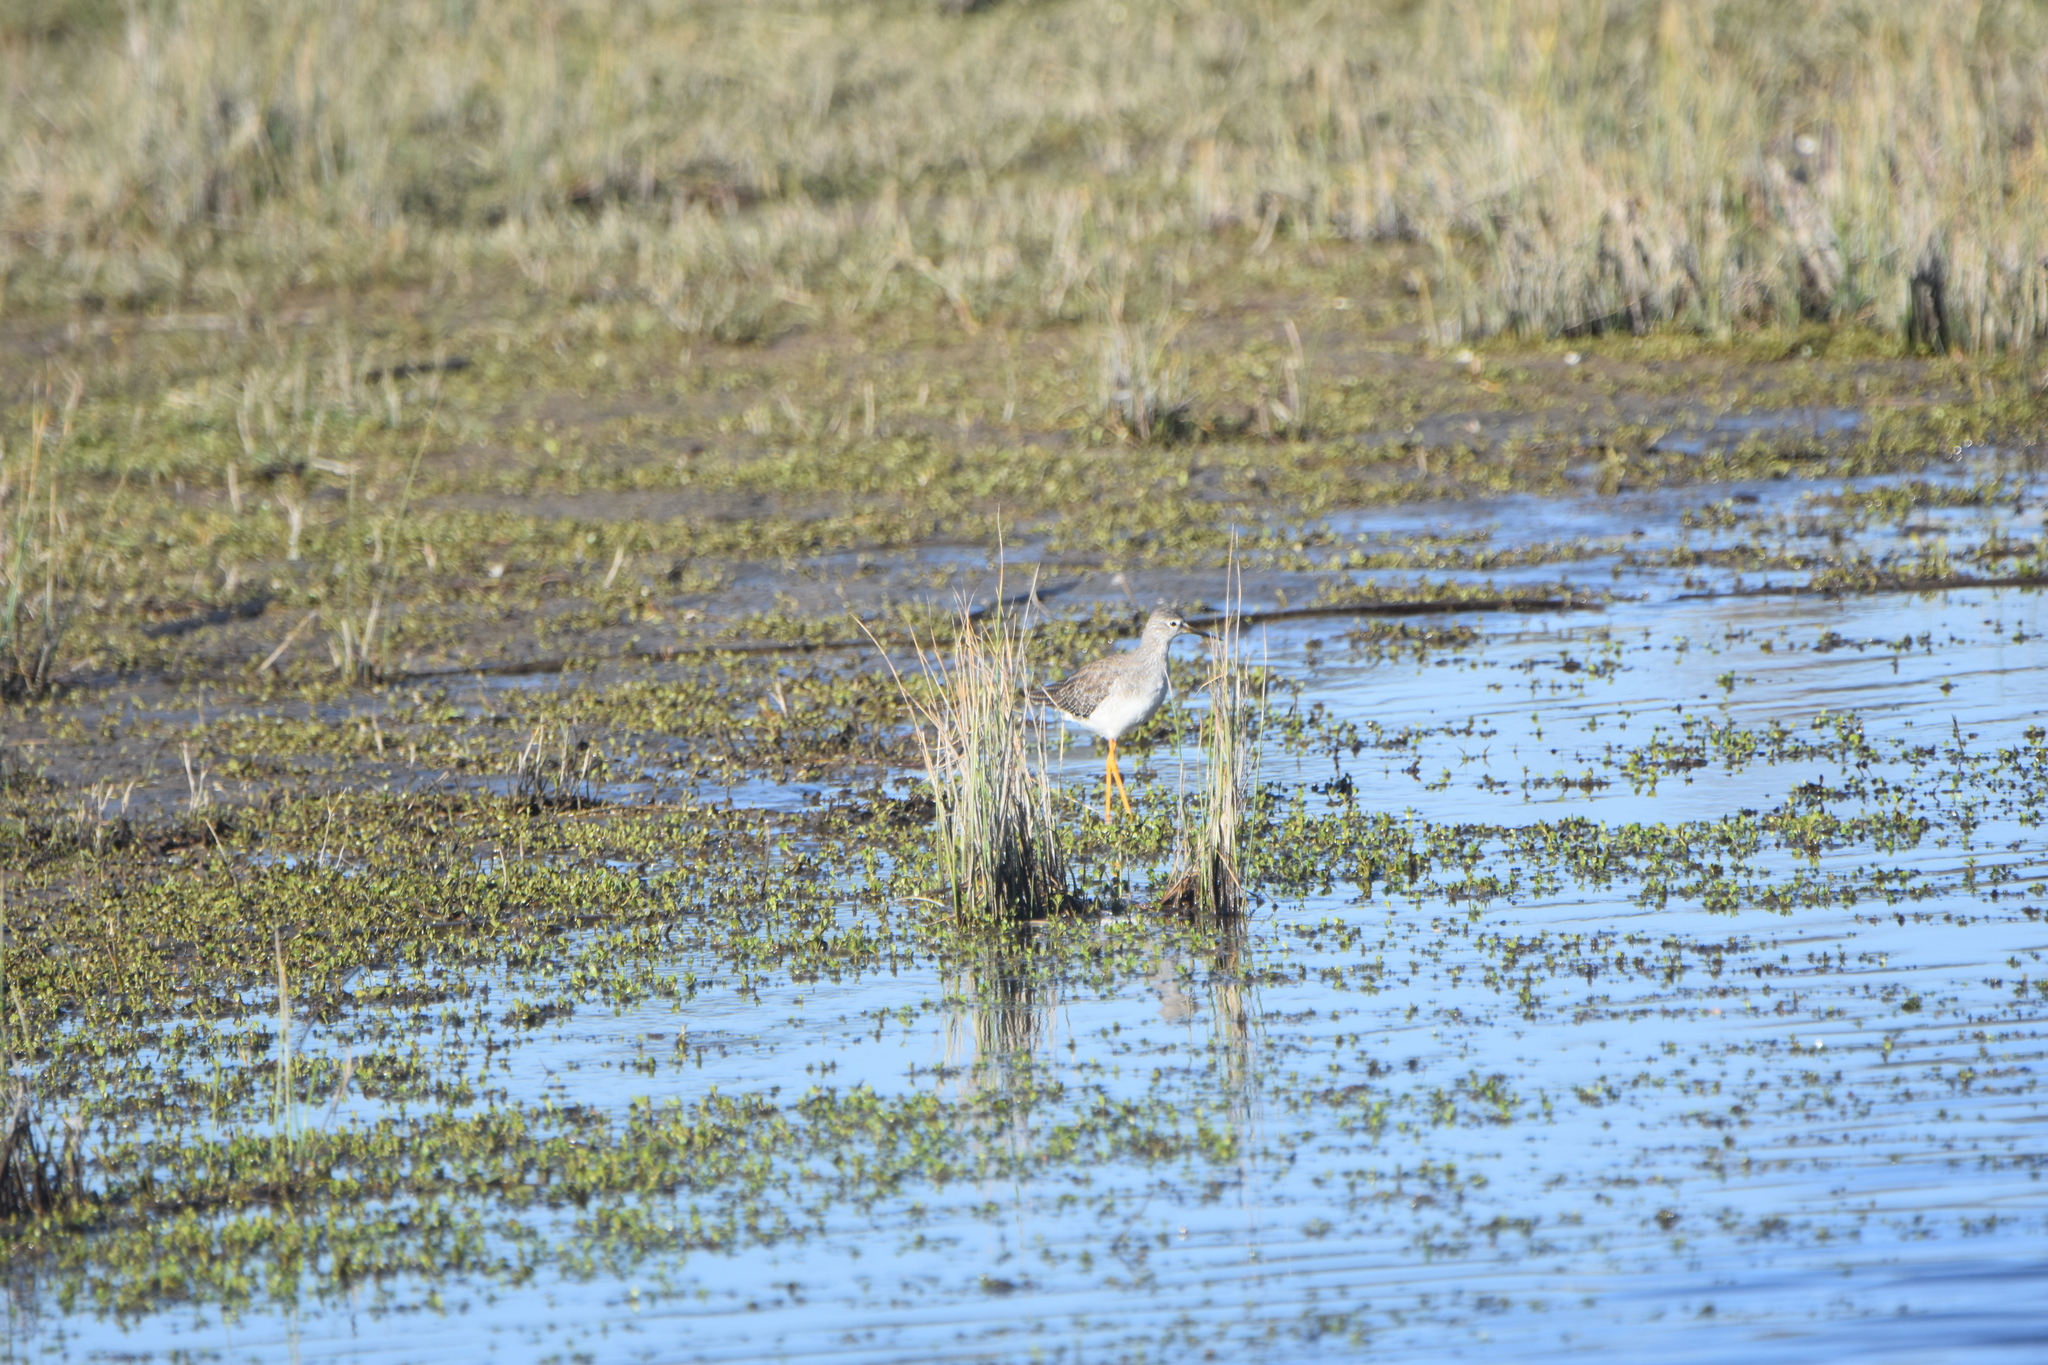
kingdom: Animalia
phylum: Chordata
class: Aves
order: Charadriiformes
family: Scolopacidae
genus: Tringa
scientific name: Tringa flavipes
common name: Lesser yellowlegs
